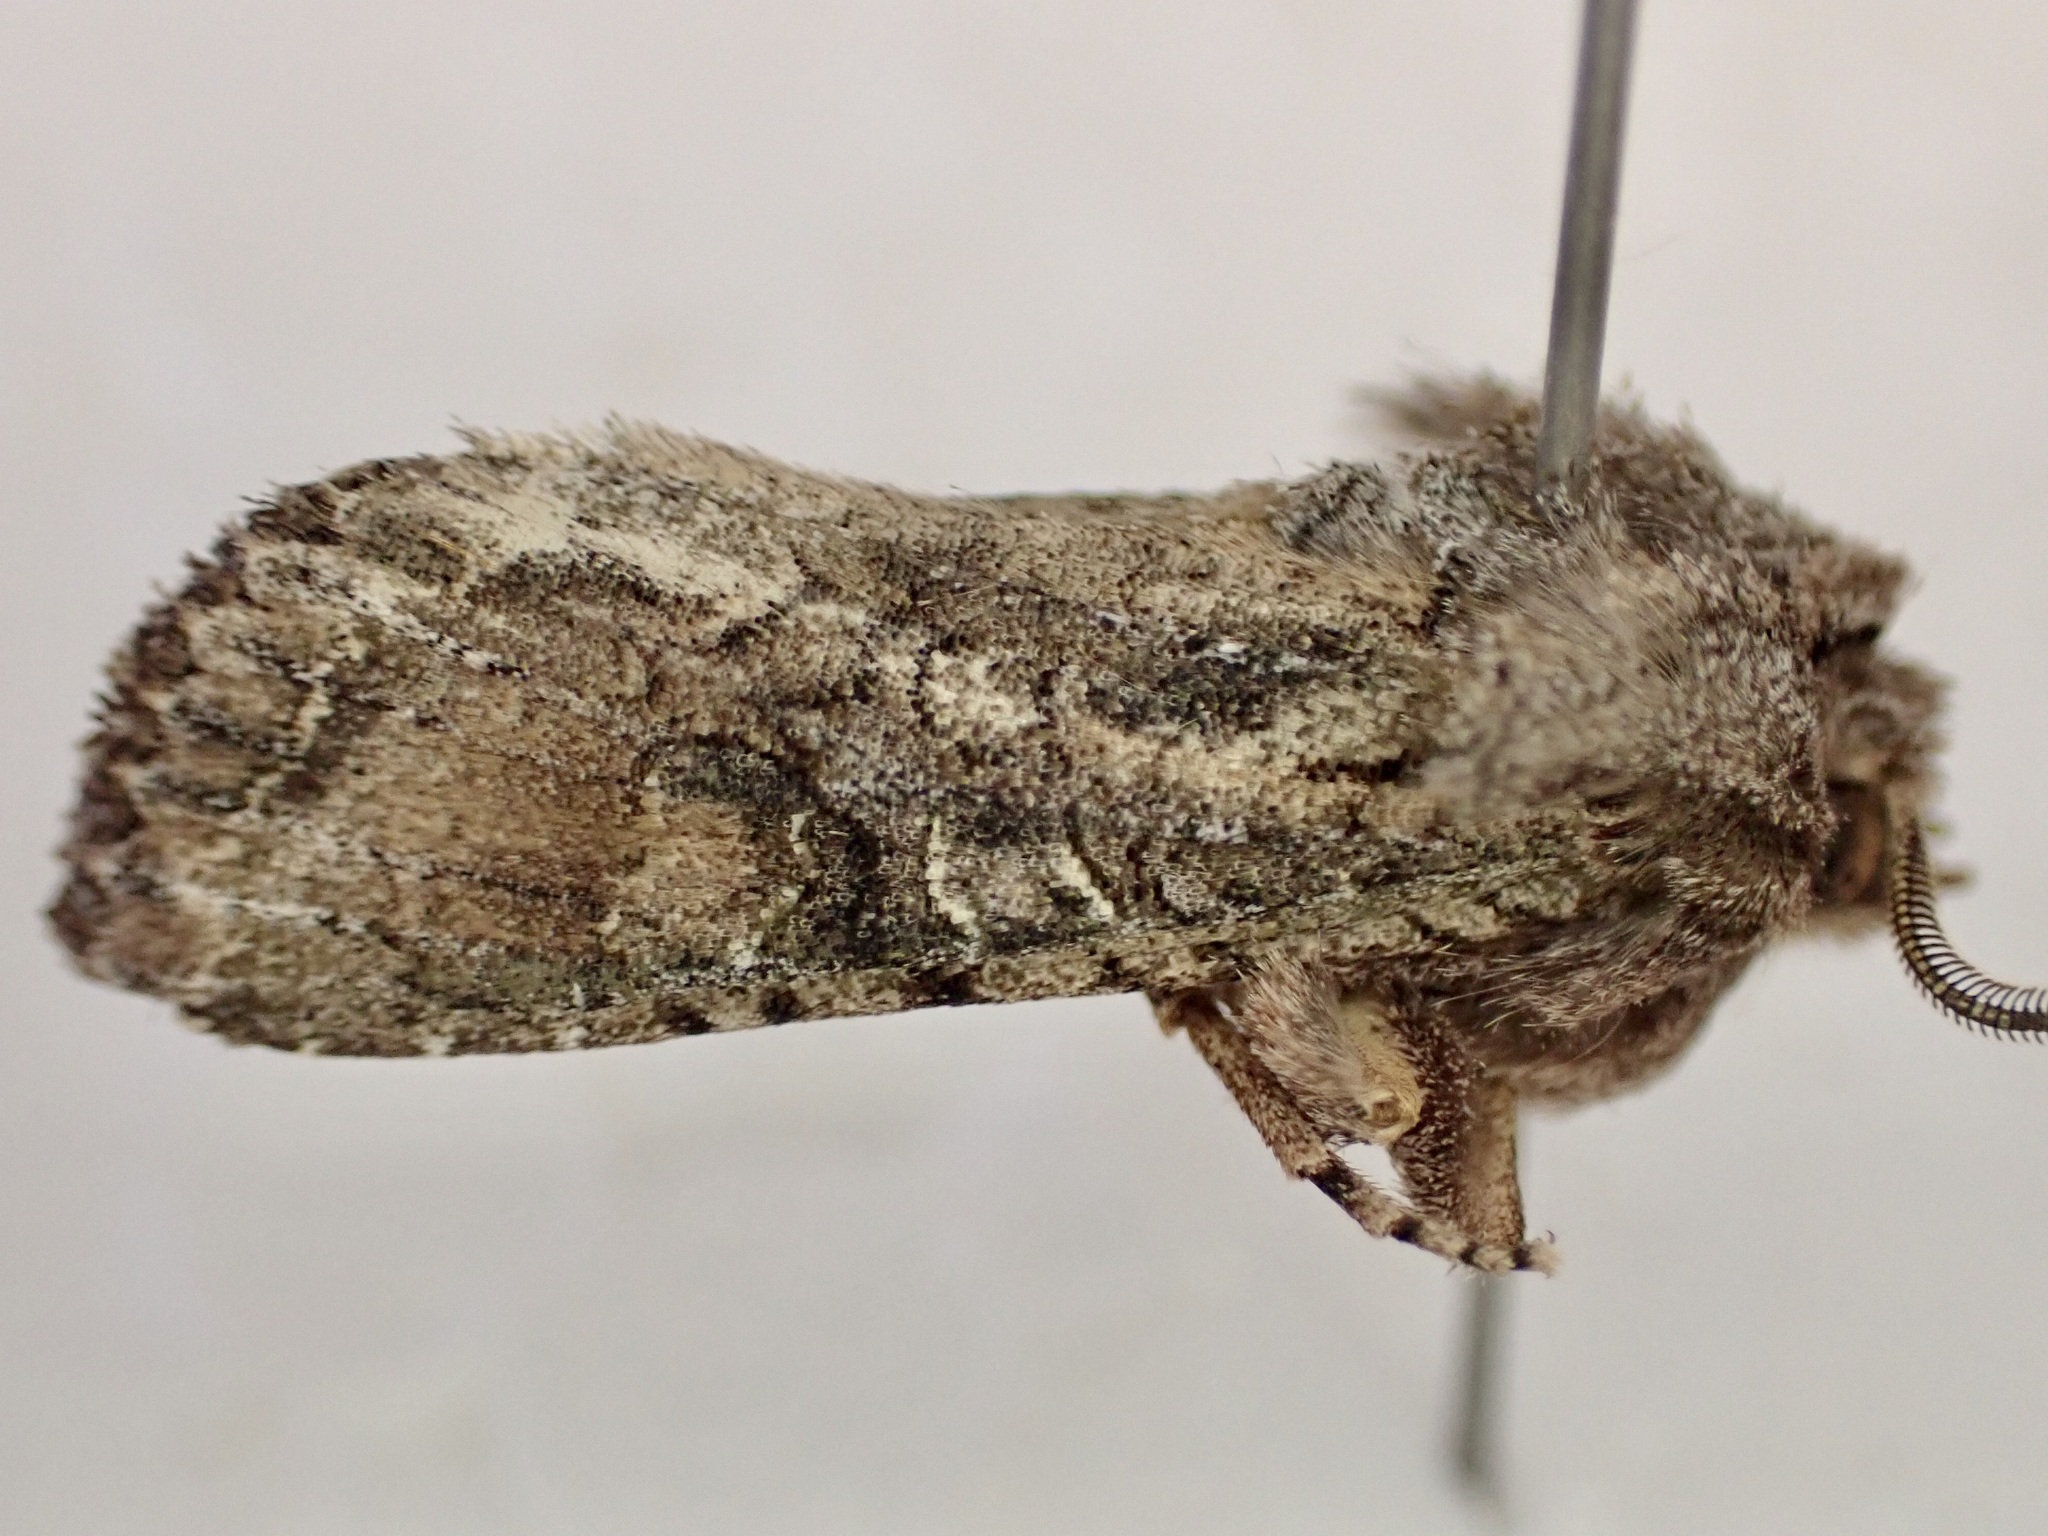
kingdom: Animalia
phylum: Arthropoda
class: Insecta
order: Lepidoptera
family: Noctuidae
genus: Ichneutica
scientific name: Ichneutica mutans
